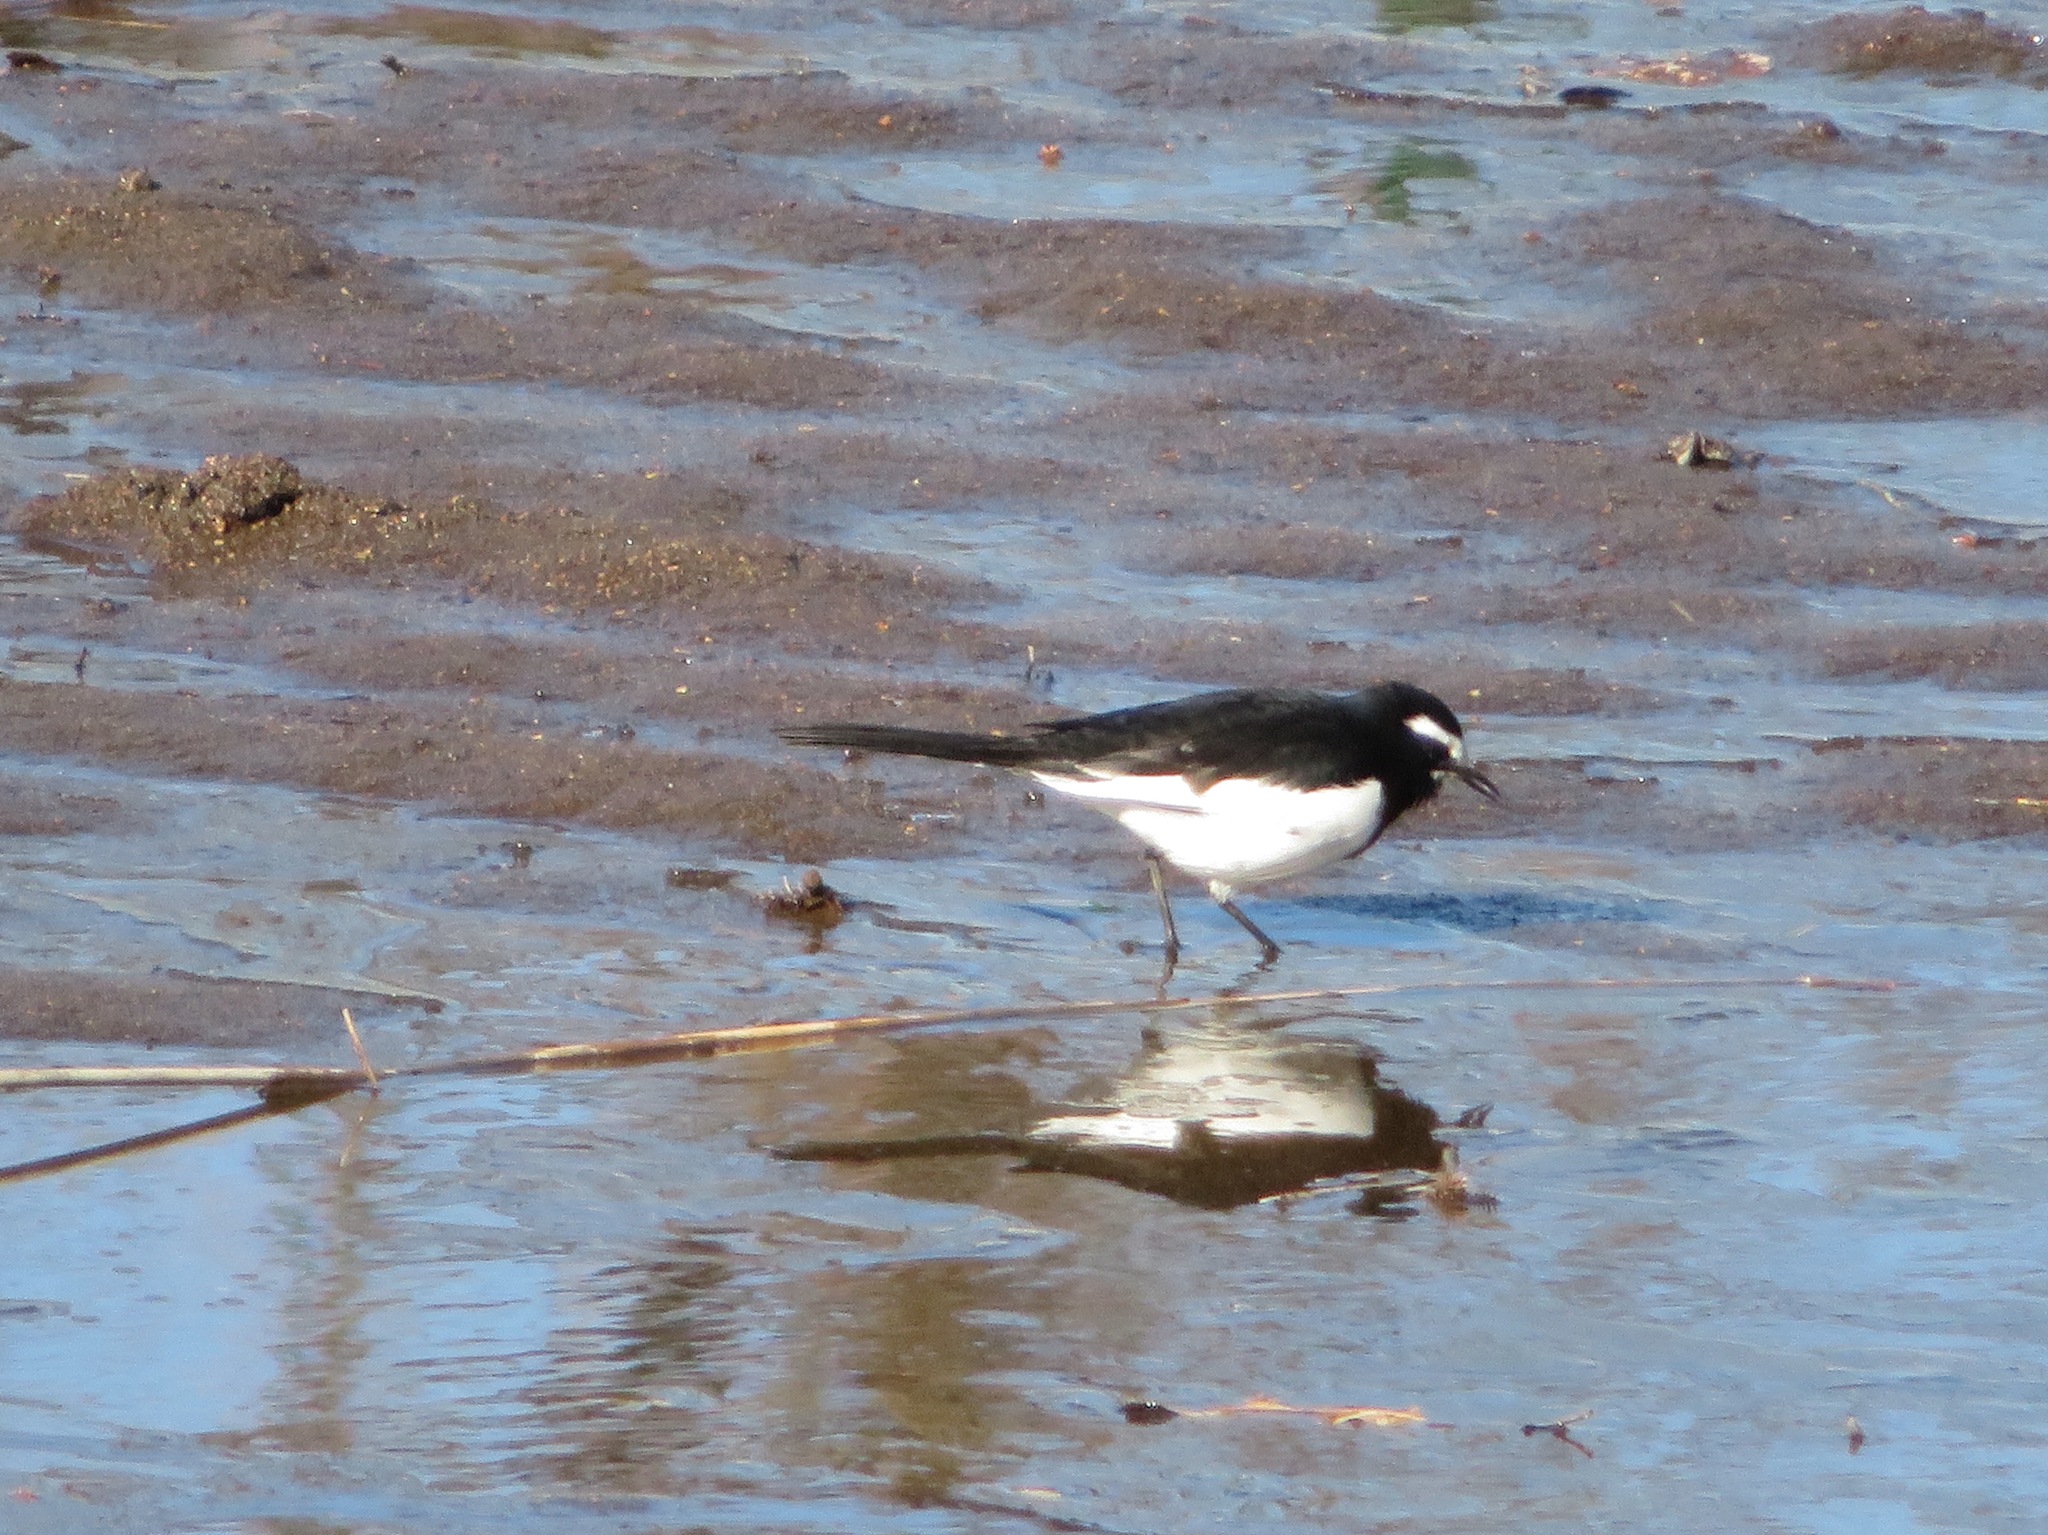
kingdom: Animalia
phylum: Chordata
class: Aves
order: Passeriformes
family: Motacillidae
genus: Motacilla
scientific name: Motacilla grandis
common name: Japanese wagtail
